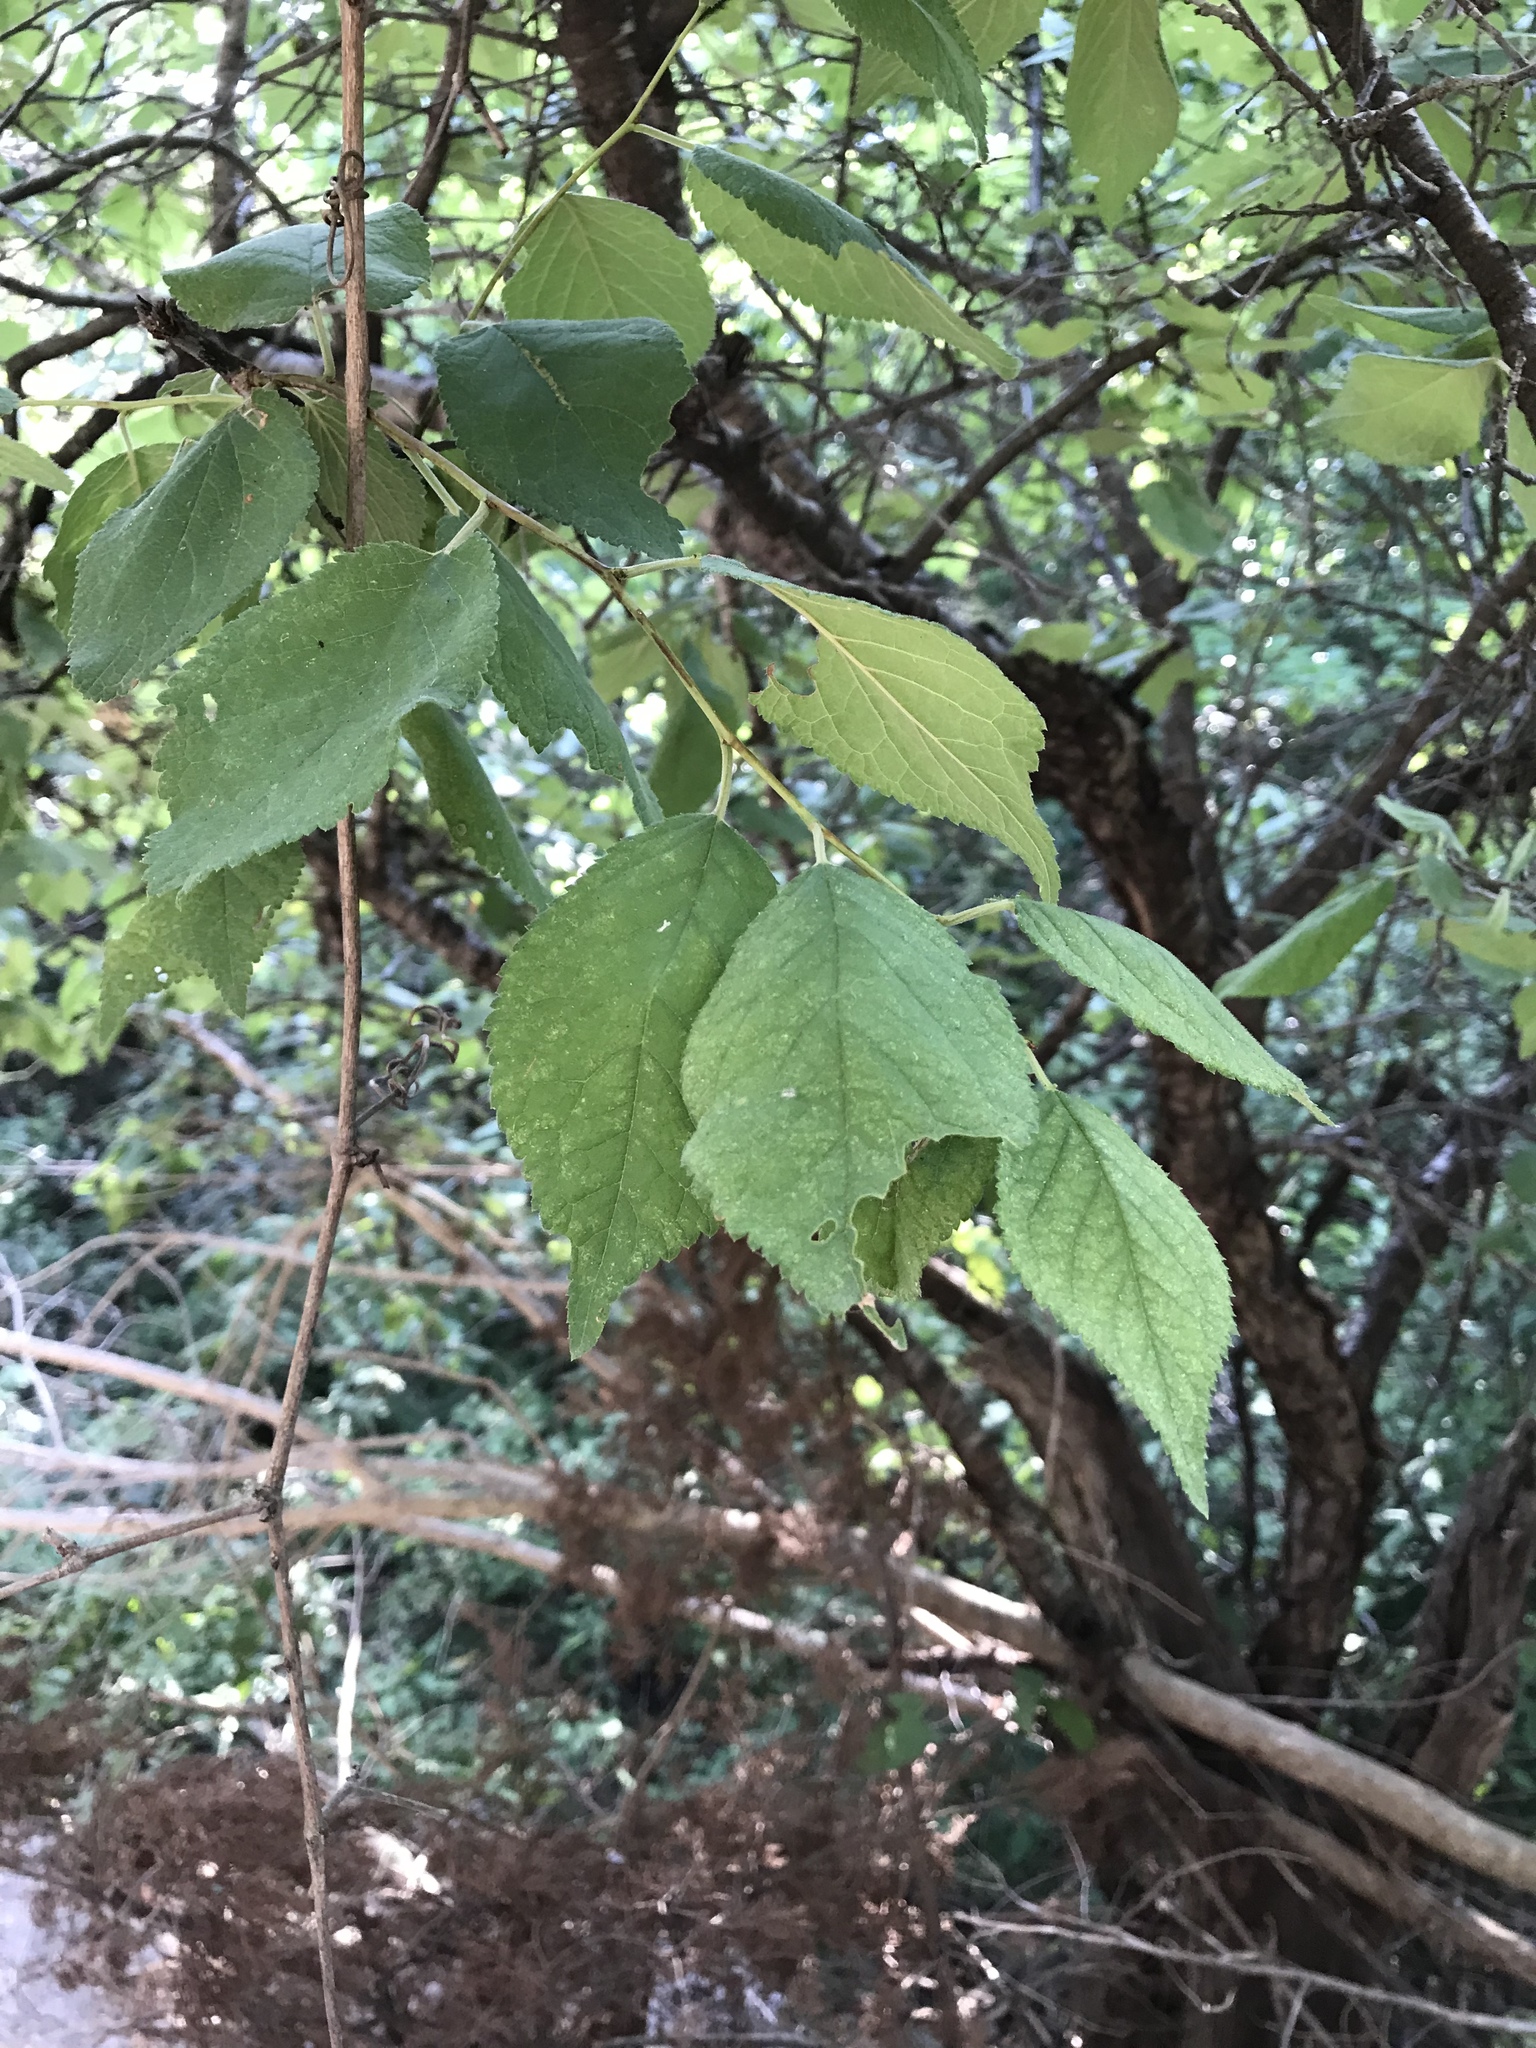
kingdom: Plantae
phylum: Tracheophyta
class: Magnoliopsida
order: Rosales
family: Rosaceae
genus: Prunus
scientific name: Prunus mexicana
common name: Mexican plum
